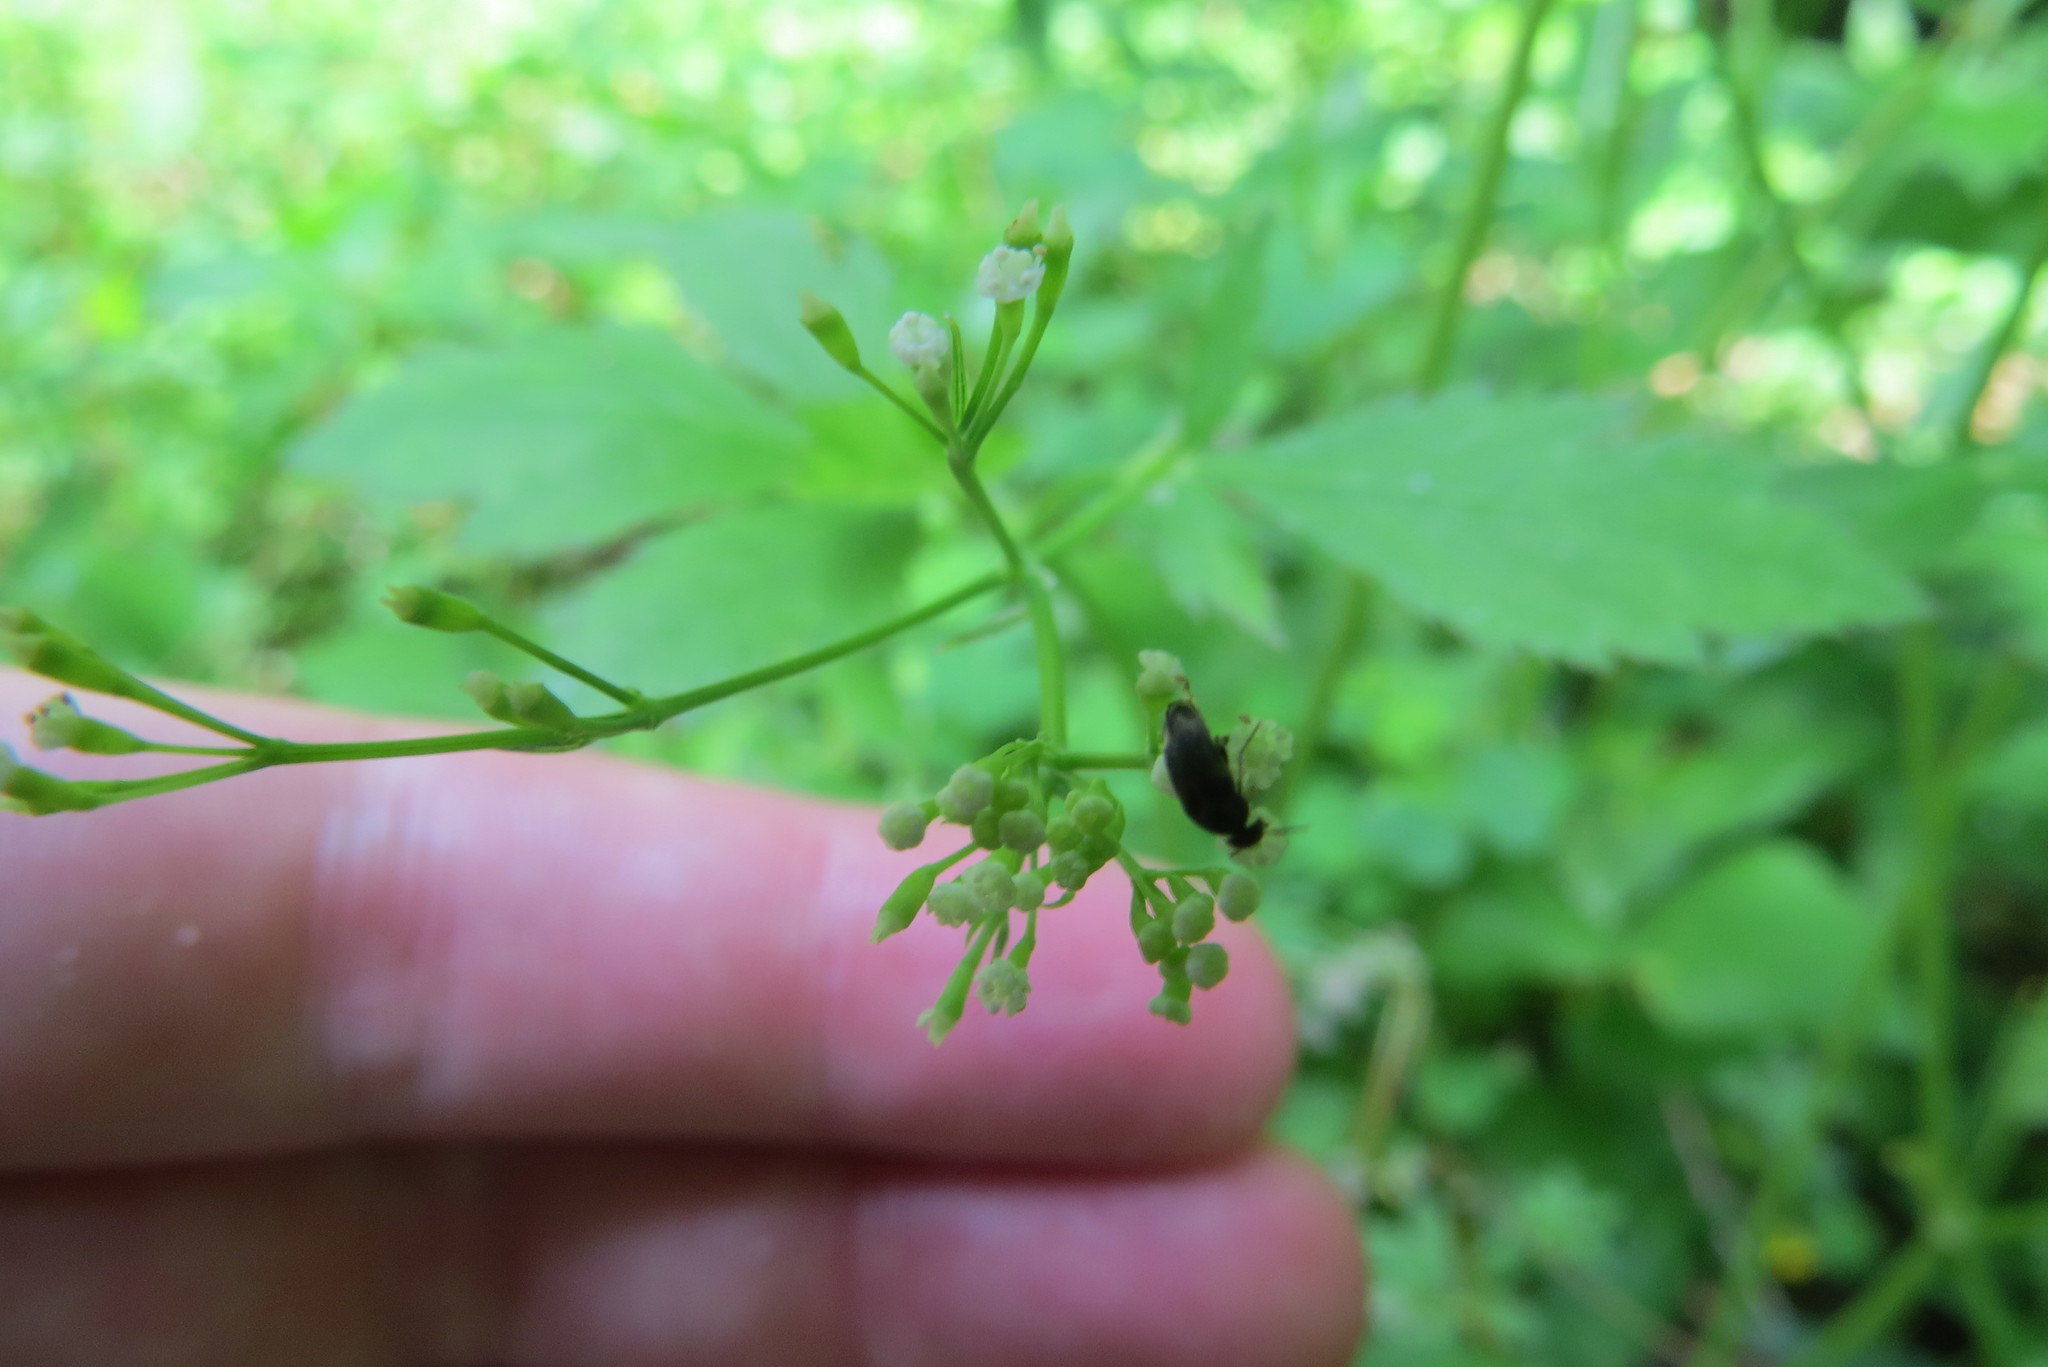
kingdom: Plantae
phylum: Tracheophyta
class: Magnoliopsida
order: Apiales
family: Apiaceae
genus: Cryptotaenia
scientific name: Cryptotaenia canadensis
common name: Honewort
